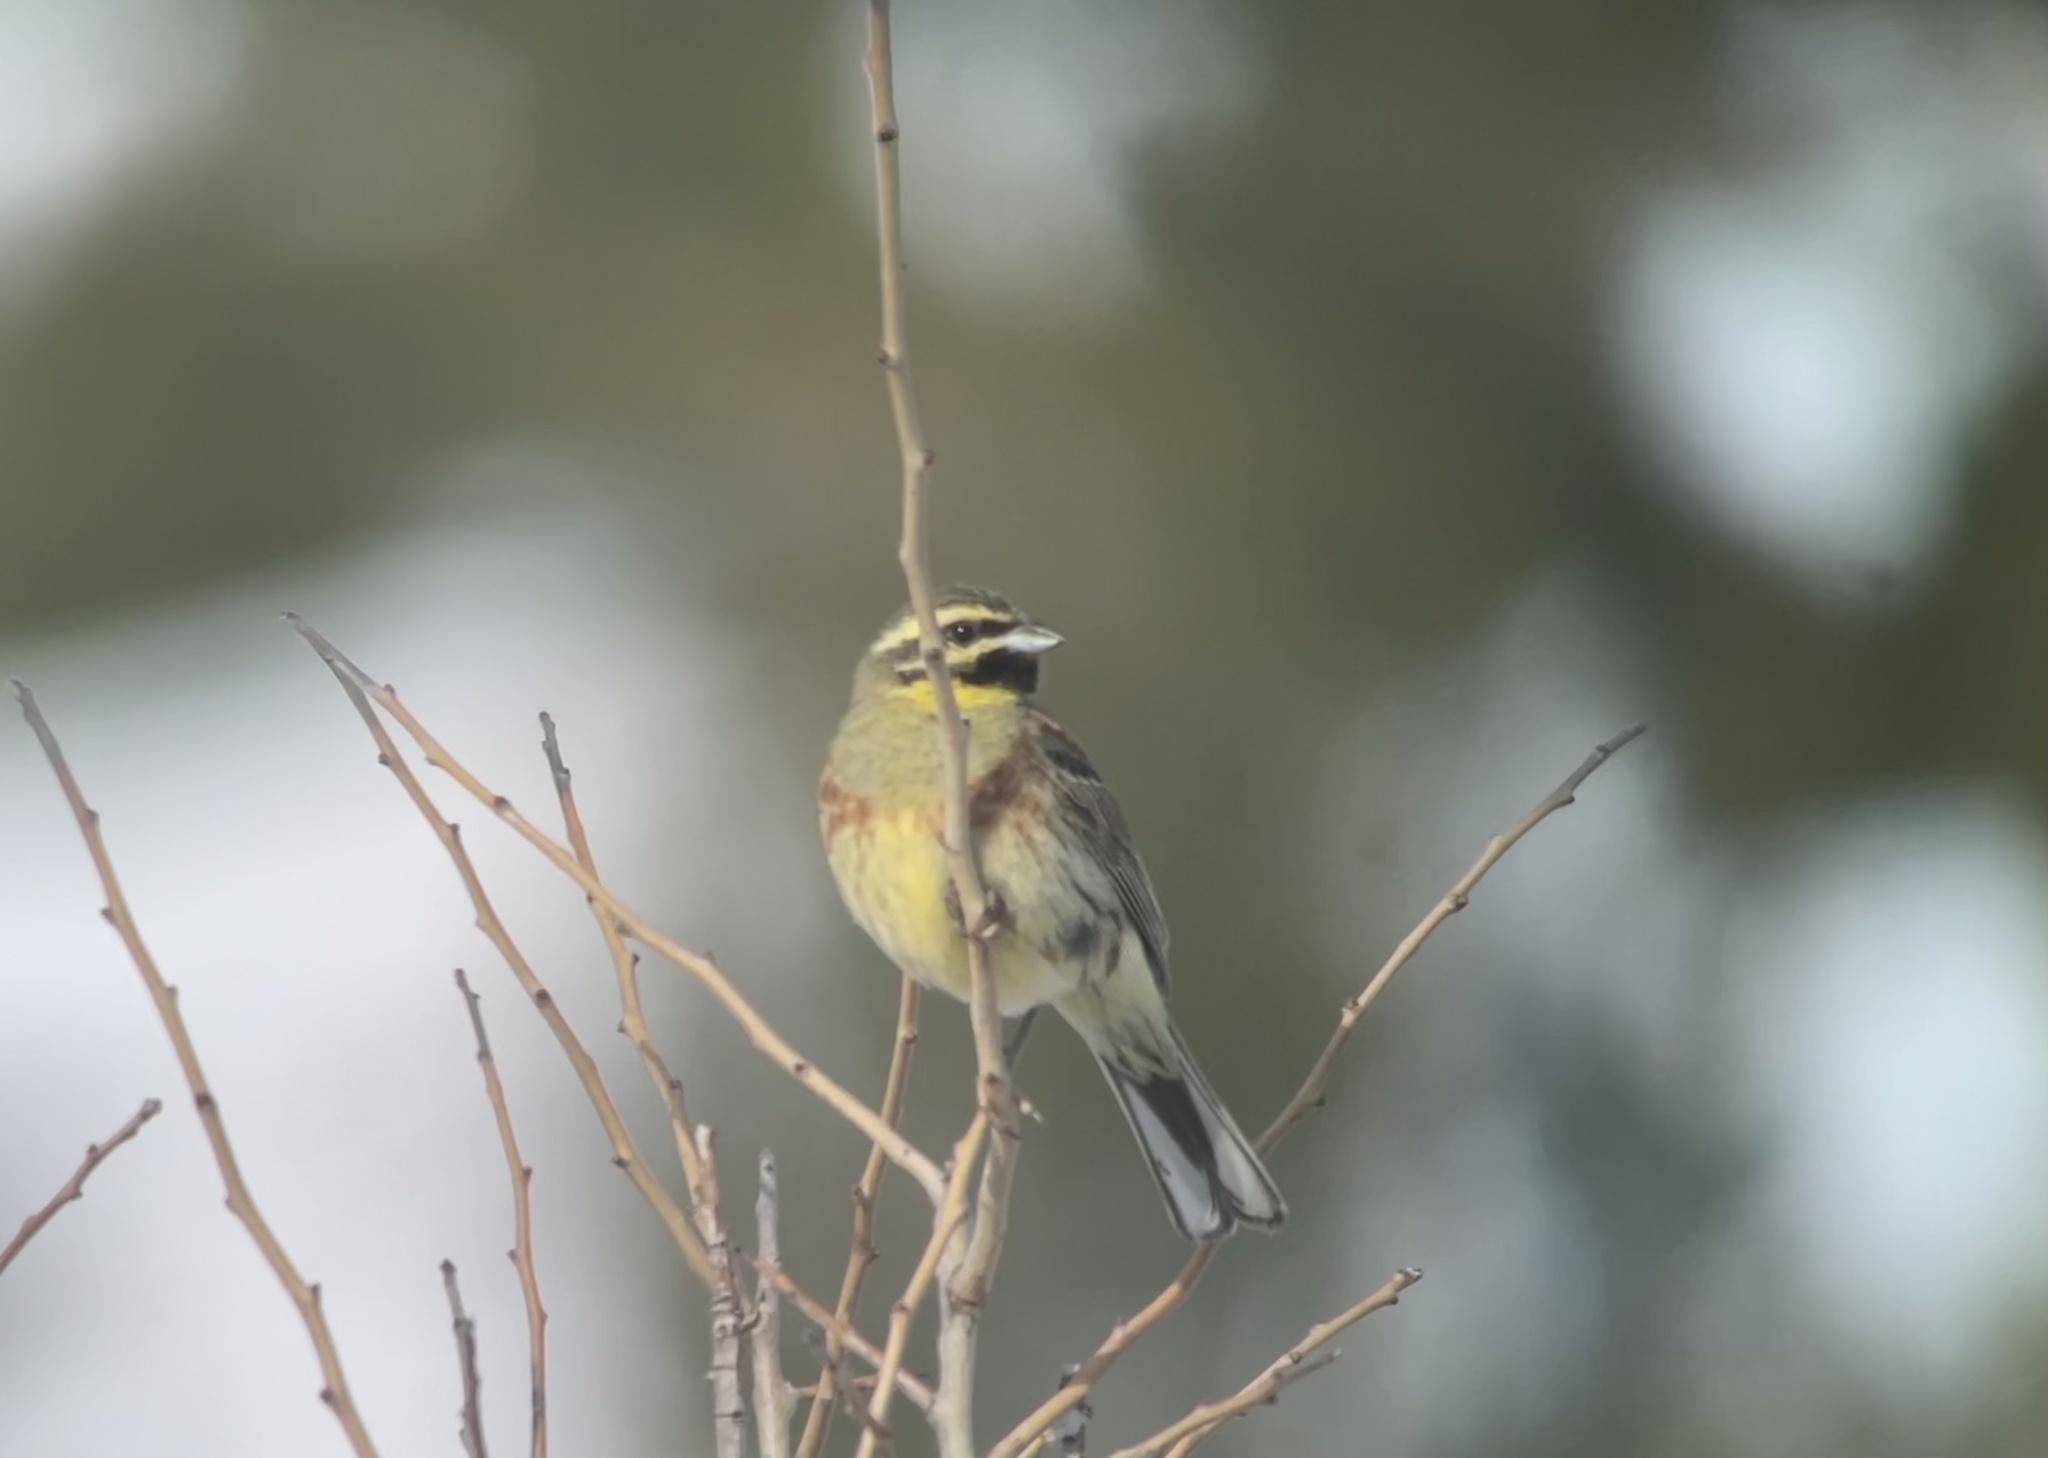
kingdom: Animalia
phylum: Chordata
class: Aves
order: Passeriformes
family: Emberizidae
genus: Emberiza
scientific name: Emberiza cirlus
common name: Cirl bunting
